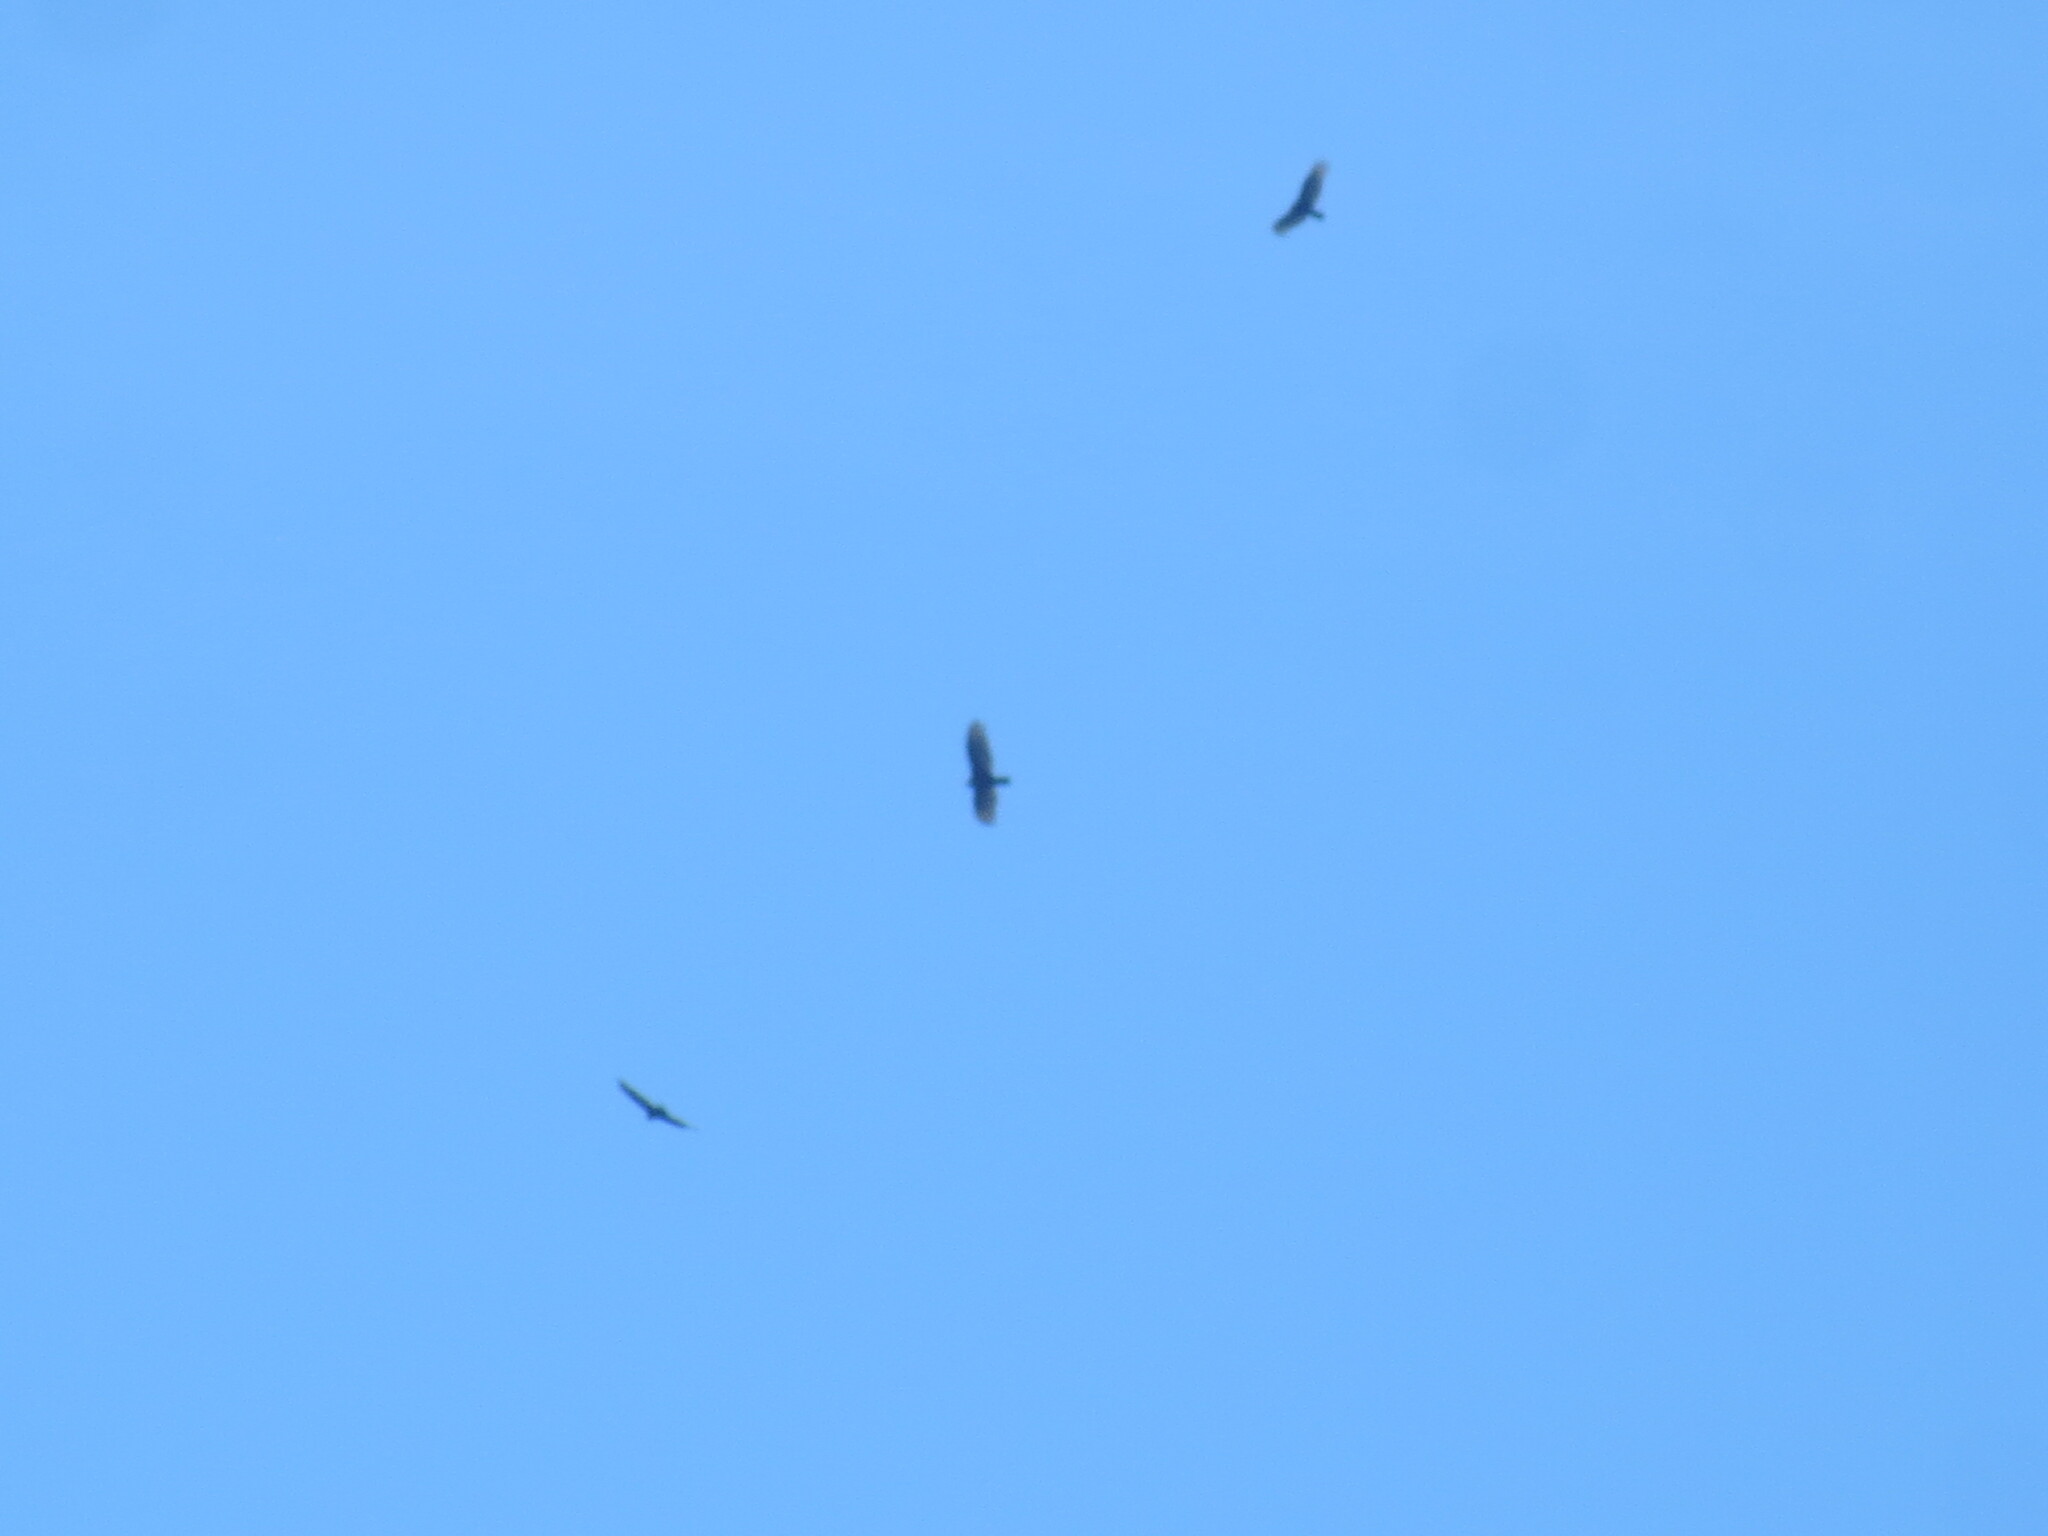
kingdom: Animalia
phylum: Chordata
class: Aves
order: Accipitriformes
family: Cathartidae
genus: Cathartes
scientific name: Cathartes aura
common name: Turkey vulture
